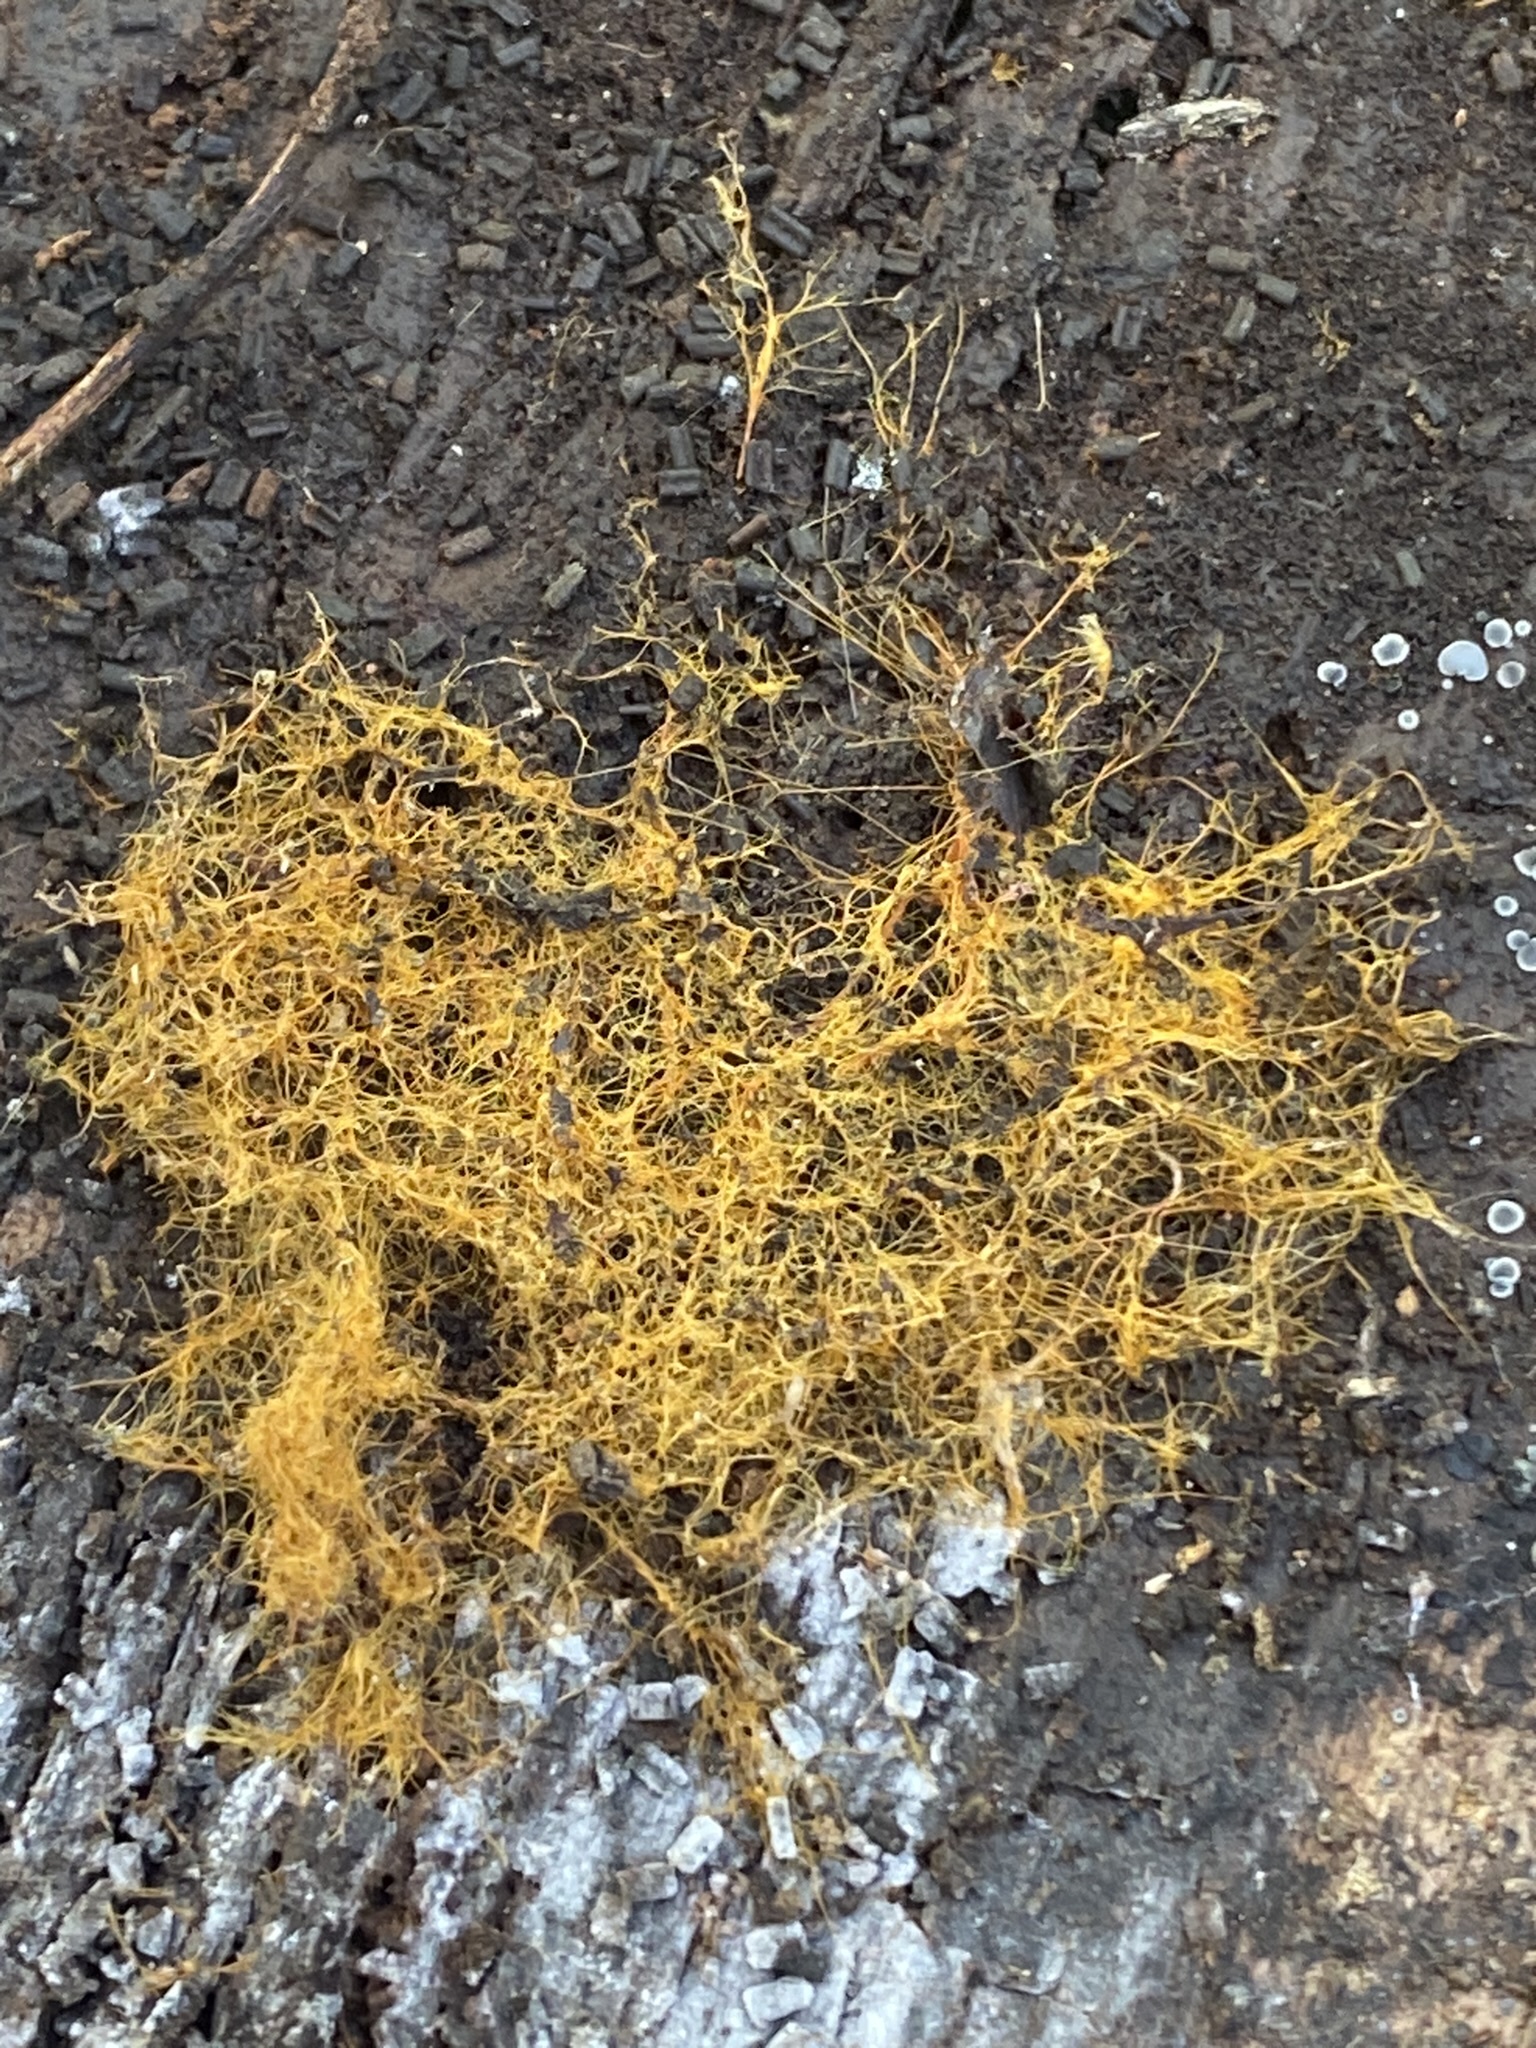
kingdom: Fungi
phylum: Basidiomycota
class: Agaricomycetes
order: Agaricales
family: Psathyrellaceae
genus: Coprinellus
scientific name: Coprinellus domesticus
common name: Firerug inkcap
